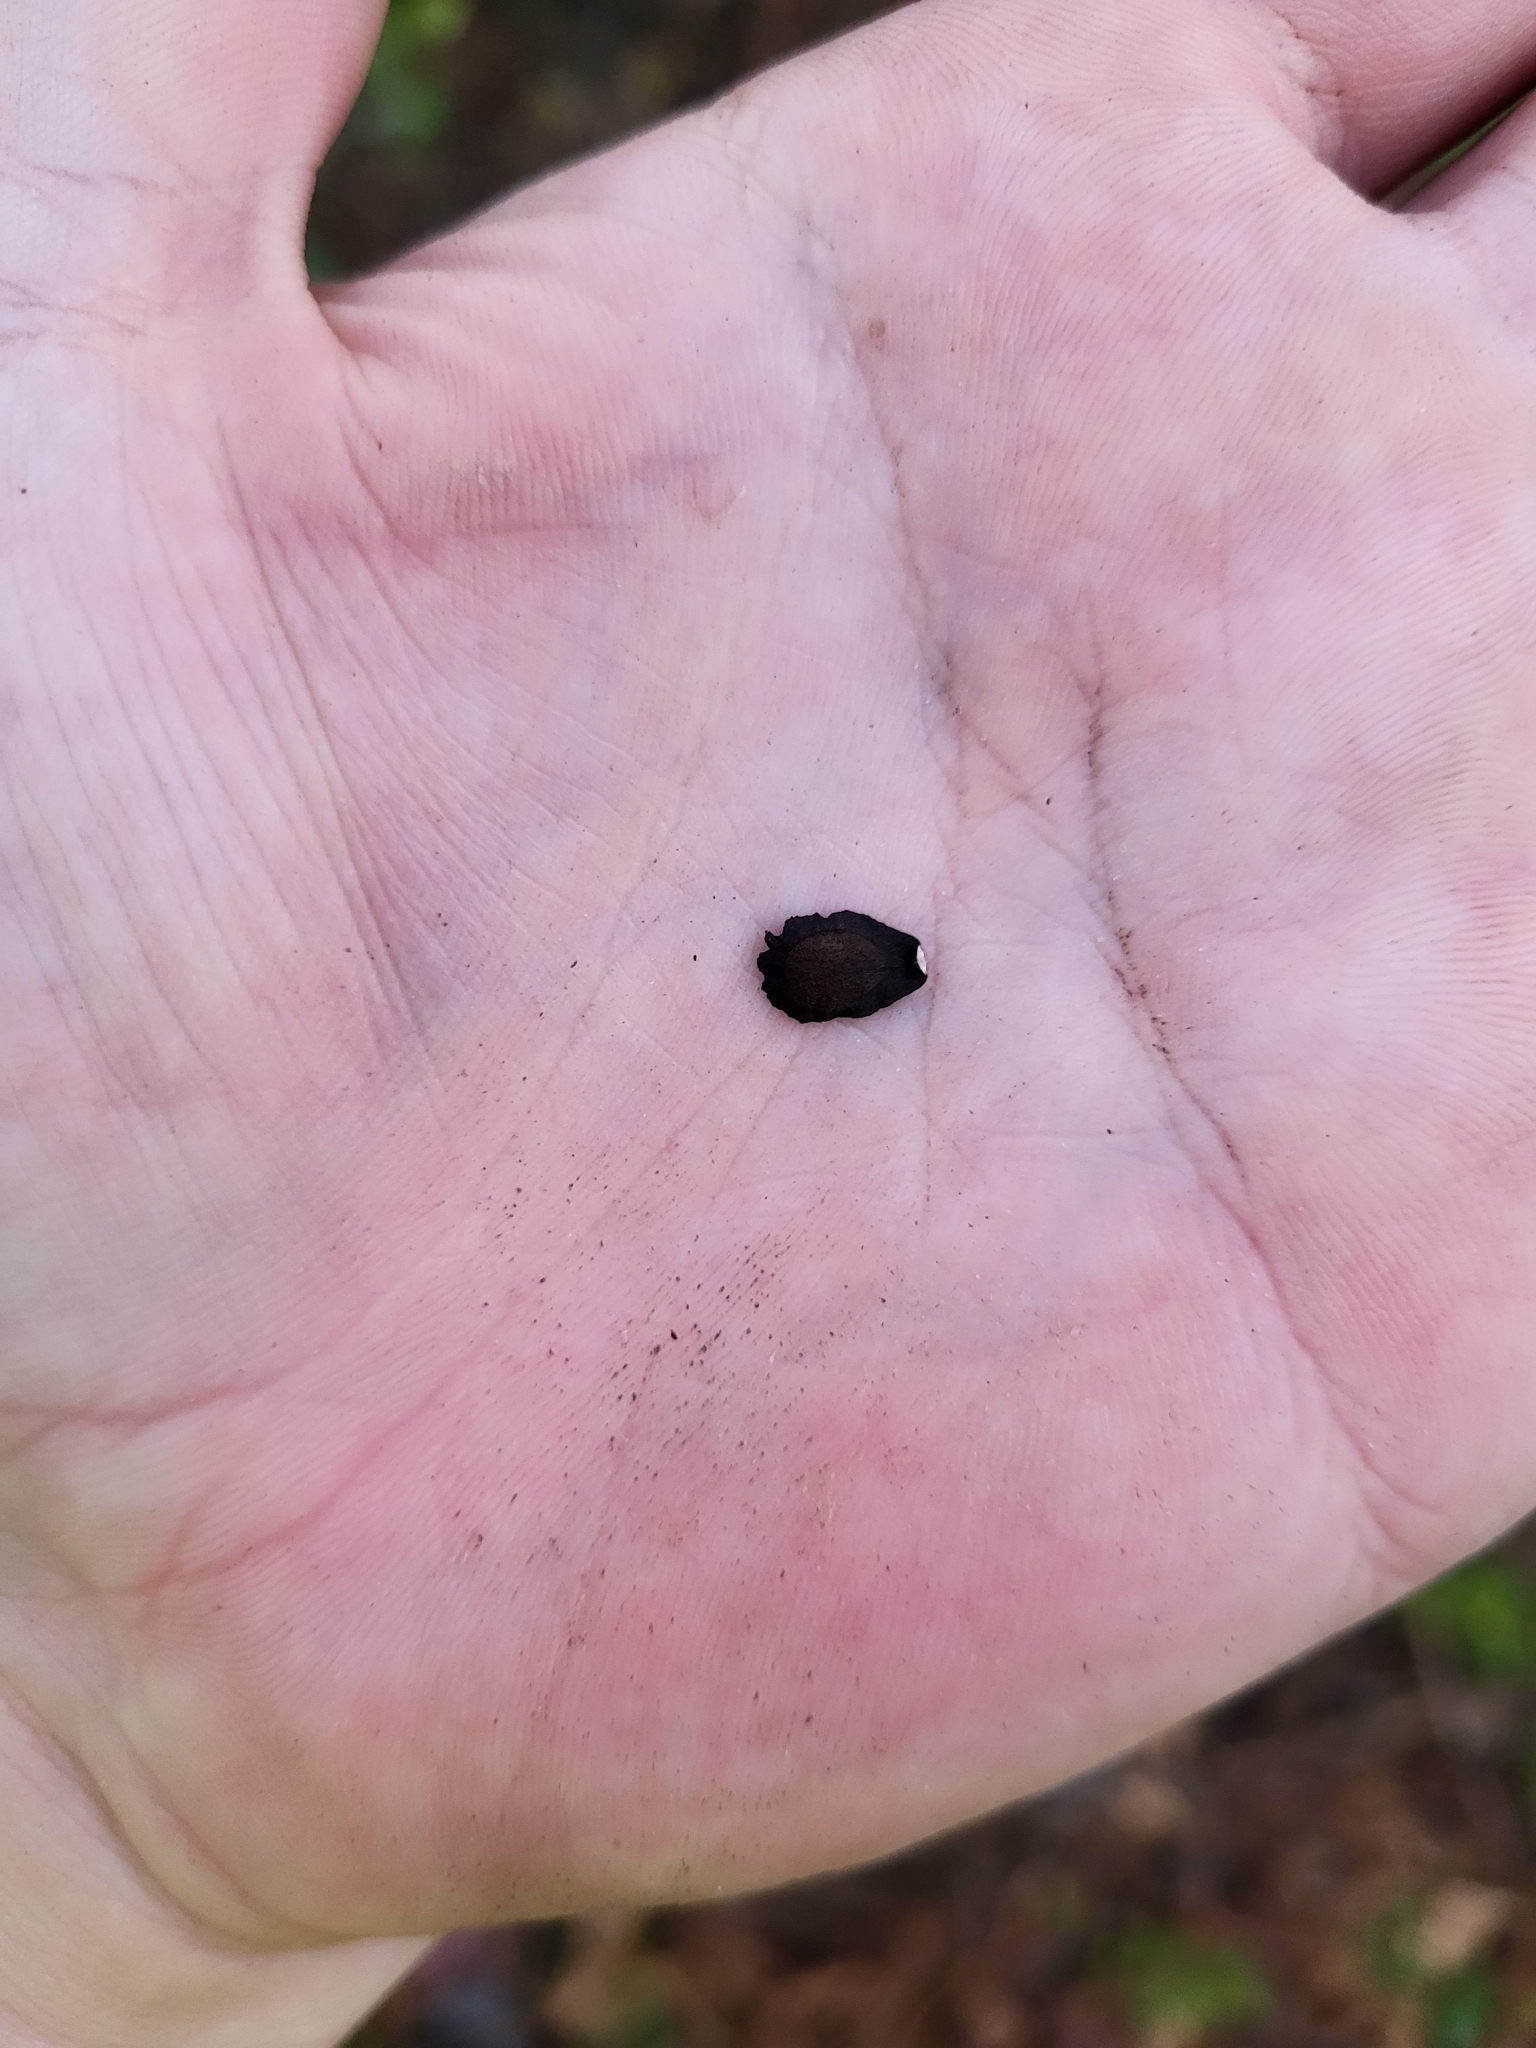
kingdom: Plantae
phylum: Tracheophyta
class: Magnoliopsida
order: Gentianales
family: Apocynaceae
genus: Gonolobus
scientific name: Gonolobus suberosus
